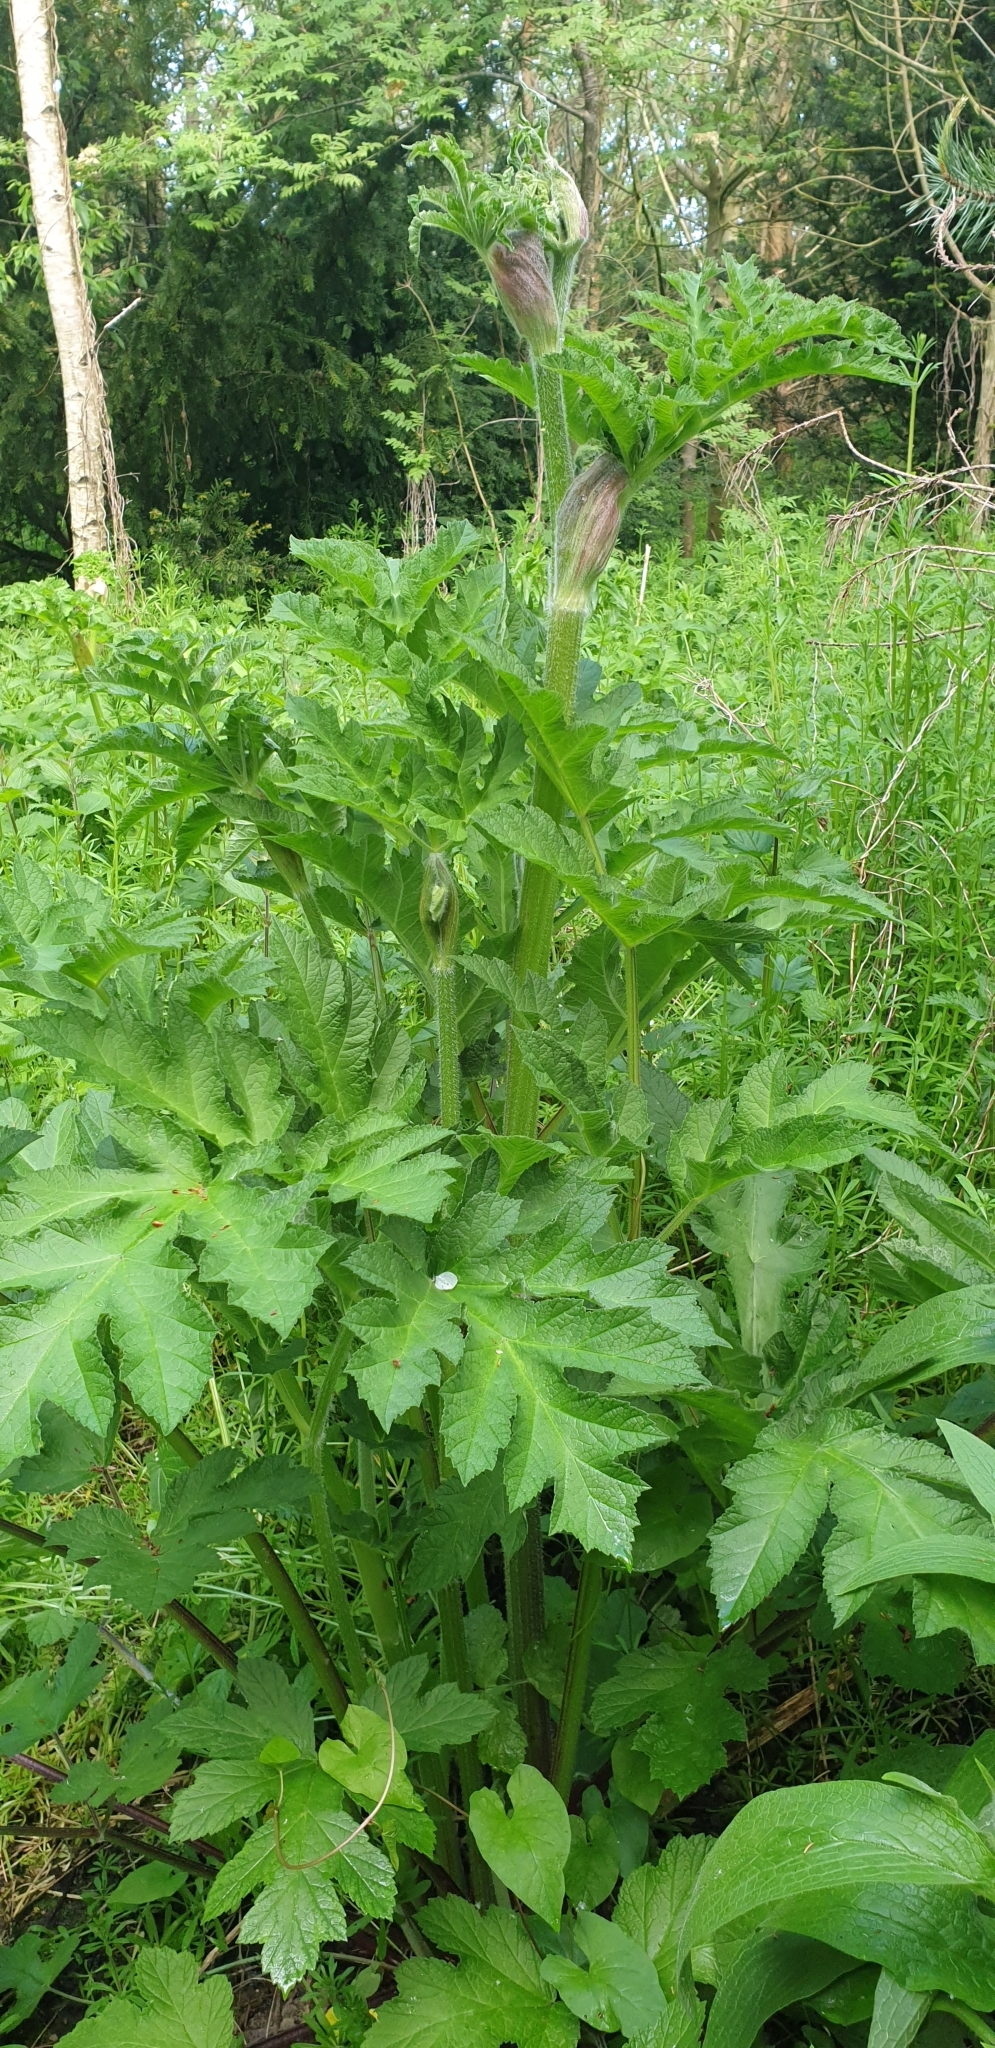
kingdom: Plantae
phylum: Tracheophyta
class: Magnoliopsida
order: Apiales
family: Apiaceae
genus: Heracleum
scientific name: Heracleum sphondylium
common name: Hogweed
